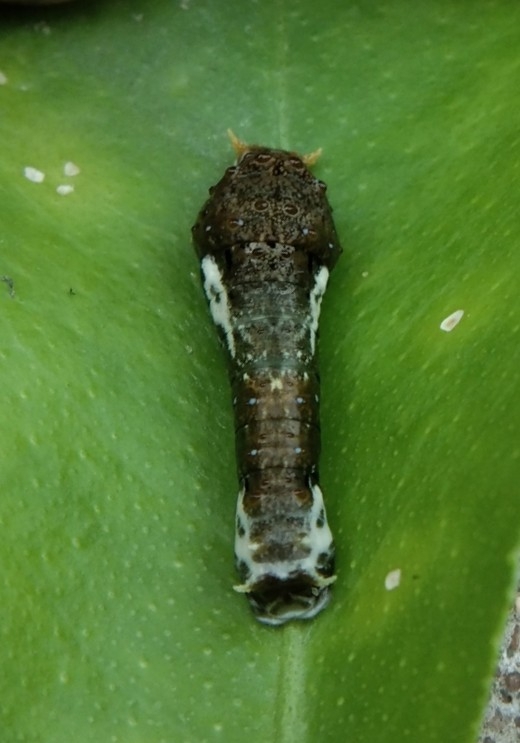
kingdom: Animalia
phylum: Arthropoda
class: Insecta
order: Lepidoptera
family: Papilionidae
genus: Papilio
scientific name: Papilio
